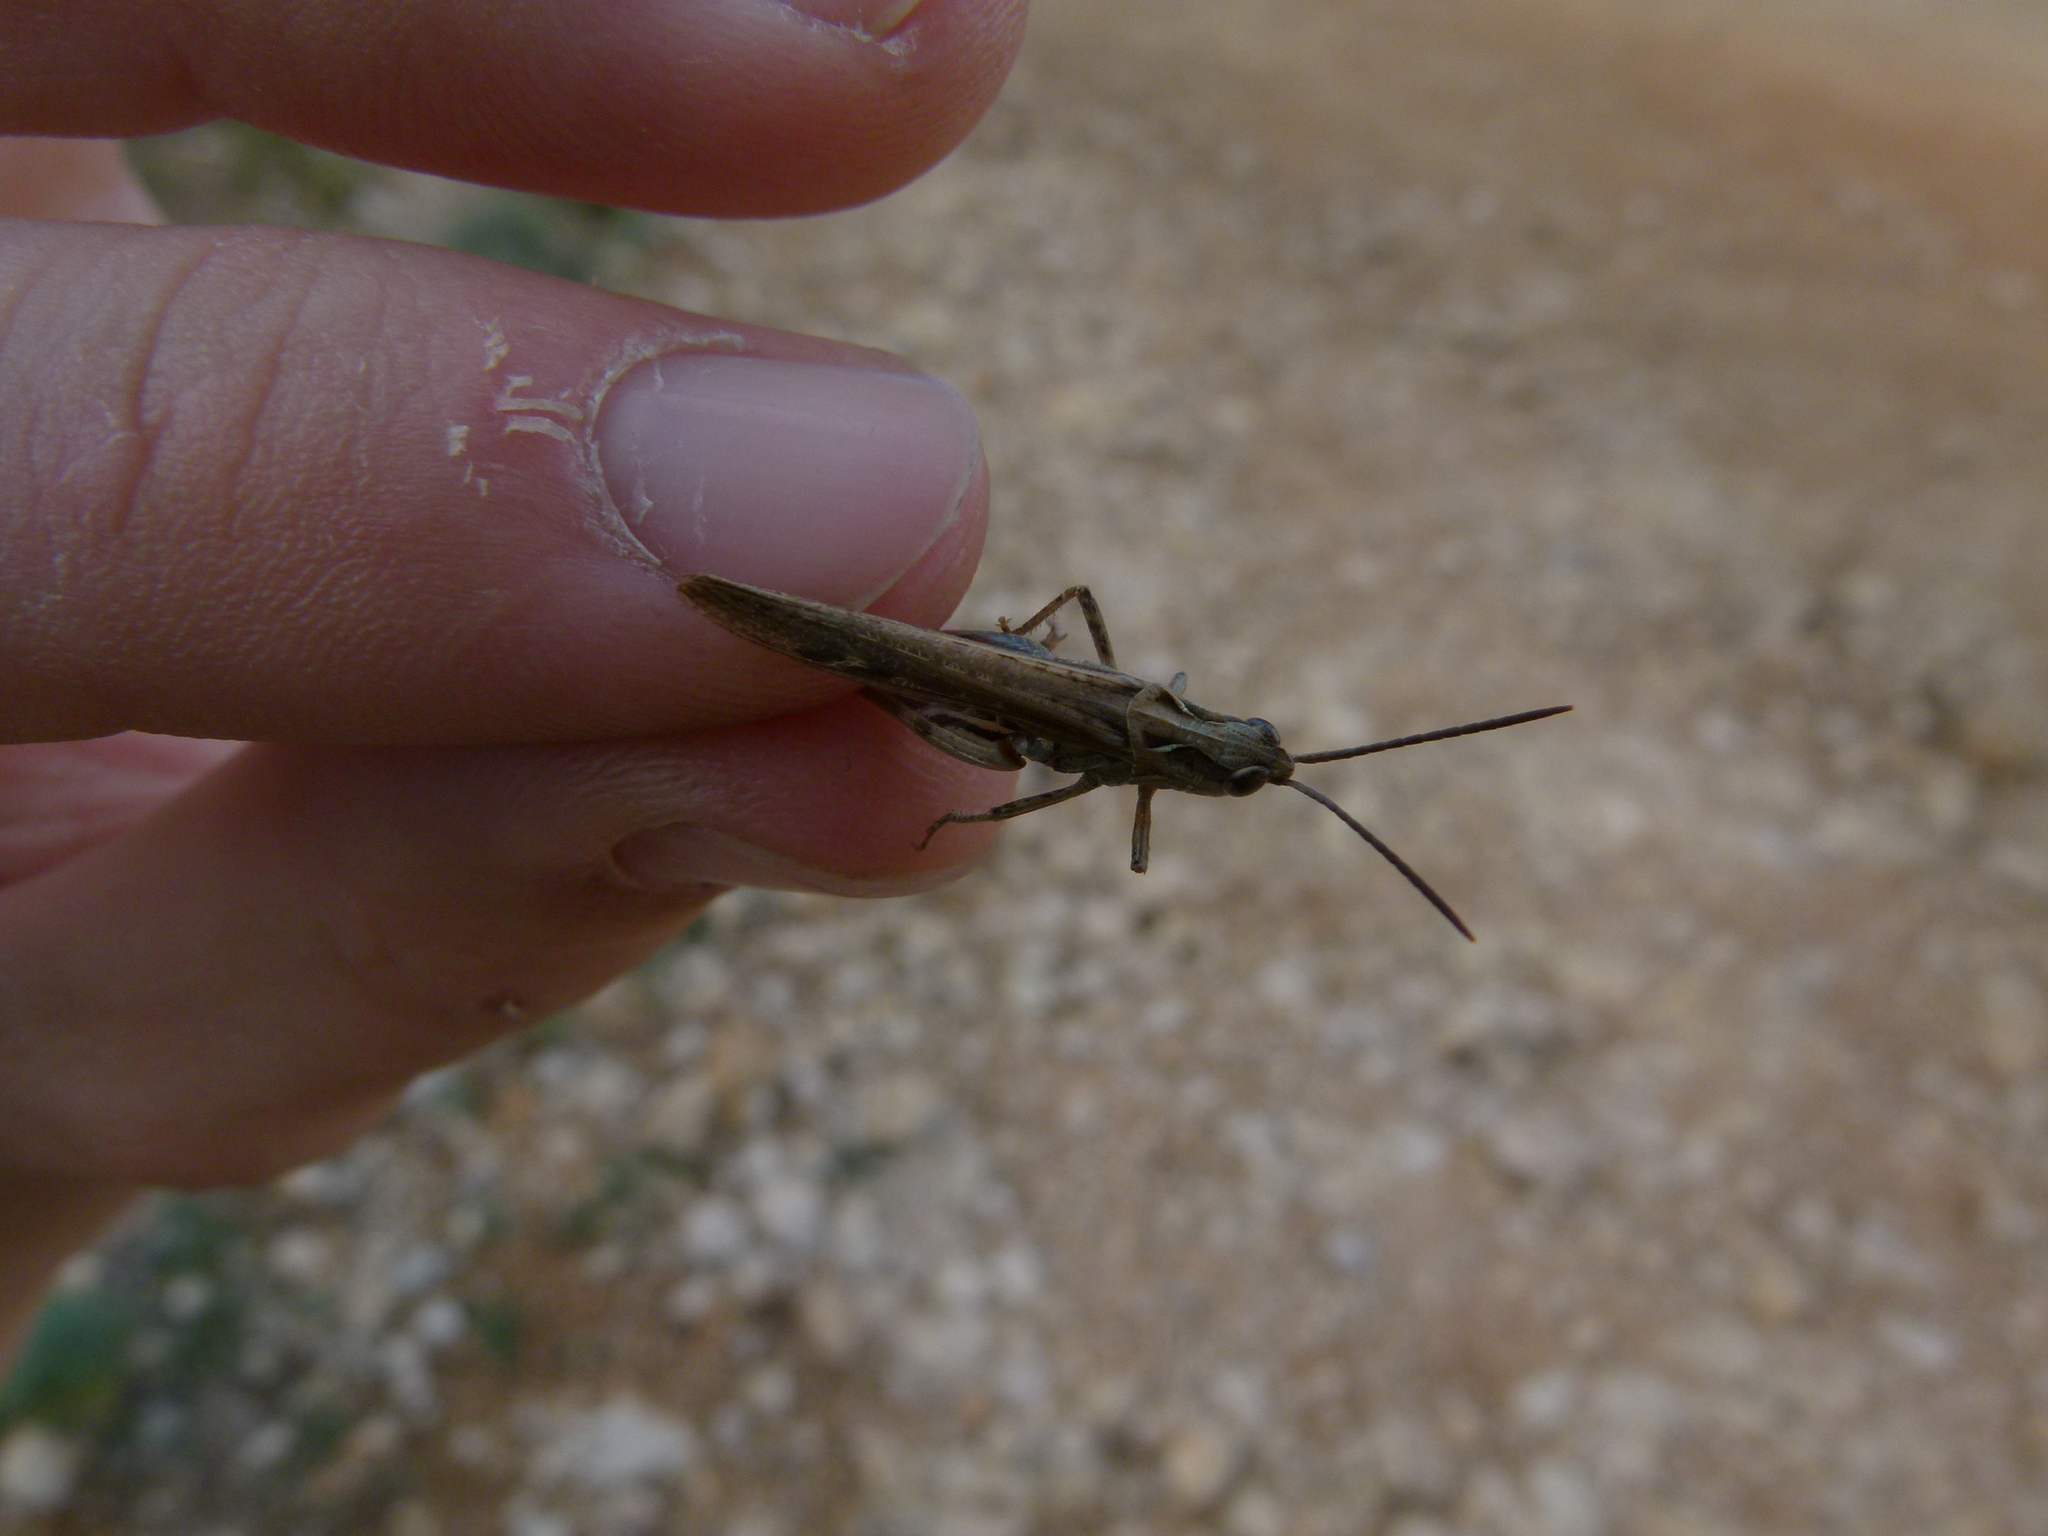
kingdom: Animalia
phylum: Arthropoda
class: Insecta
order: Orthoptera
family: Acrididae
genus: Chorthippus
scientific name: Chorthippus brunneus
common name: Field grasshopper
